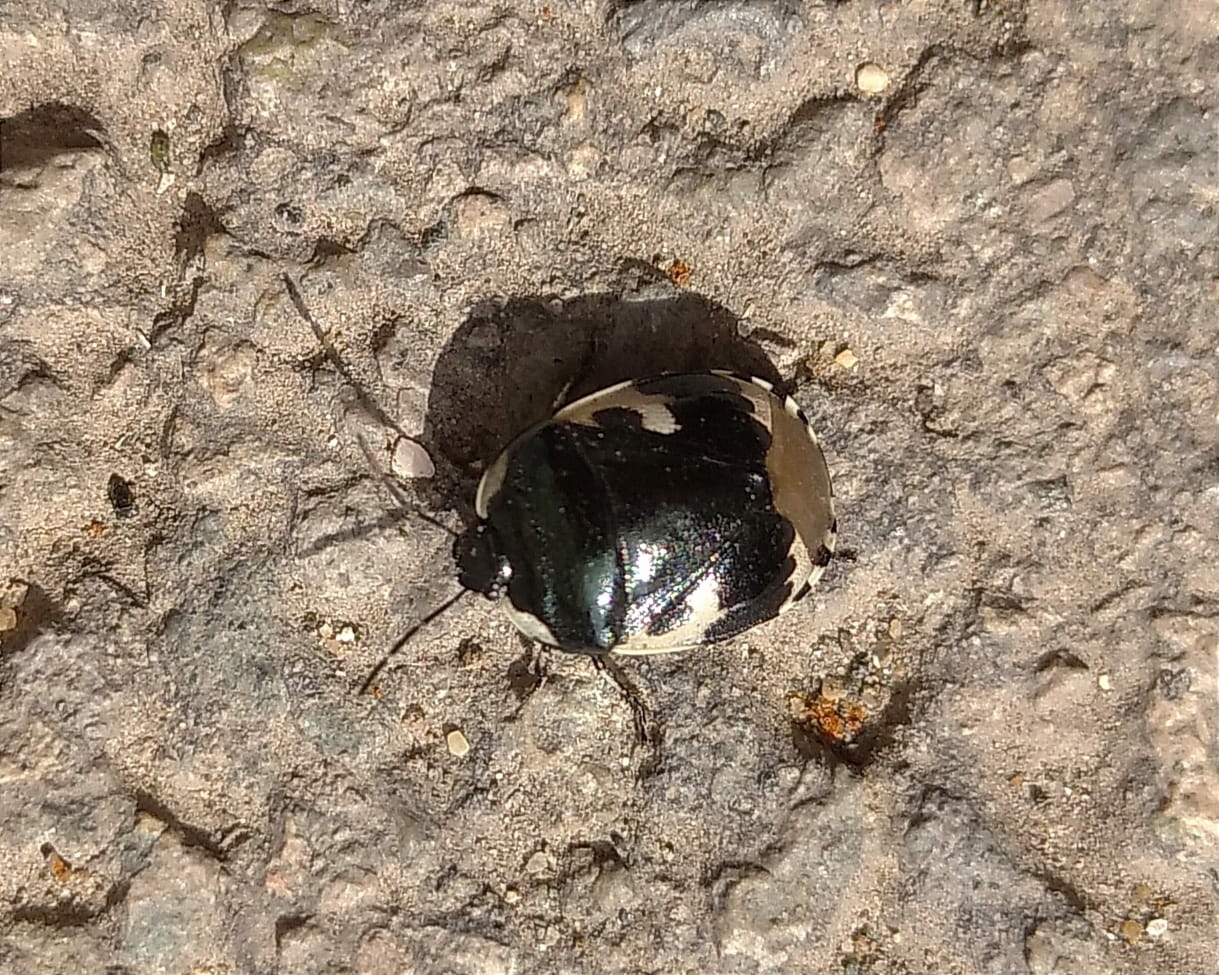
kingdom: Animalia
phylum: Arthropoda
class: Insecta
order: Hemiptera
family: Cydnidae
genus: Tritomegas
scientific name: Tritomegas bicolor
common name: Pied shieldbug
